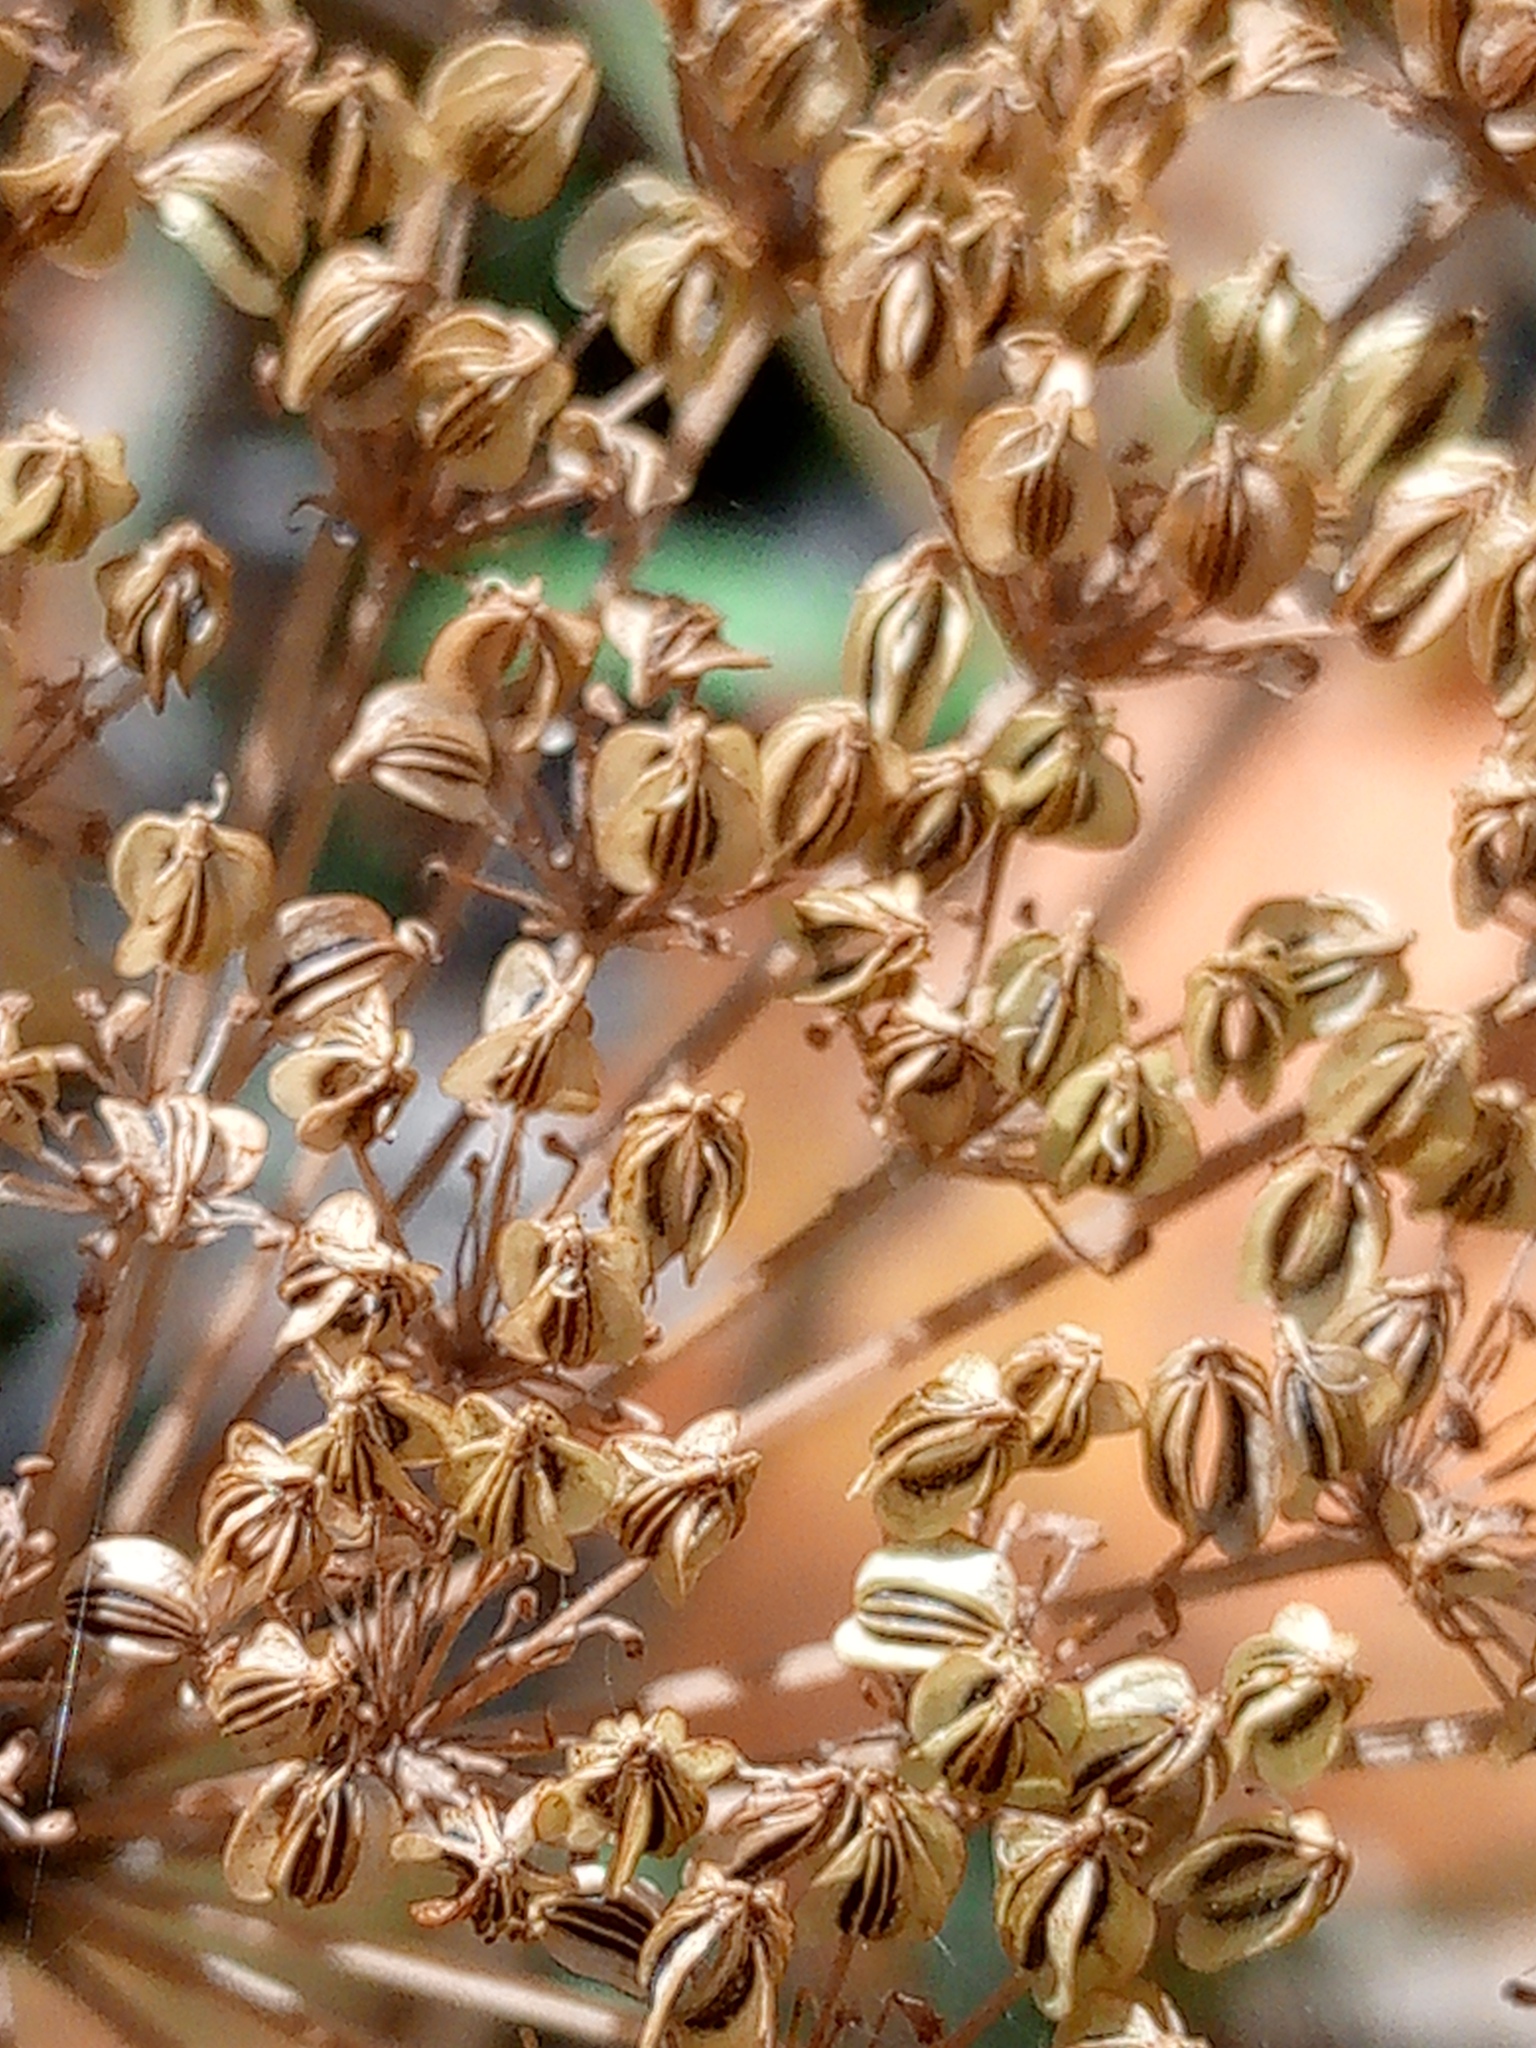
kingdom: Plantae
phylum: Tracheophyta
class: Magnoliopsida
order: Apiales
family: Apiaceae
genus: Selinum
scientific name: Selinum carvifolia
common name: Cambridge milk-parsley
